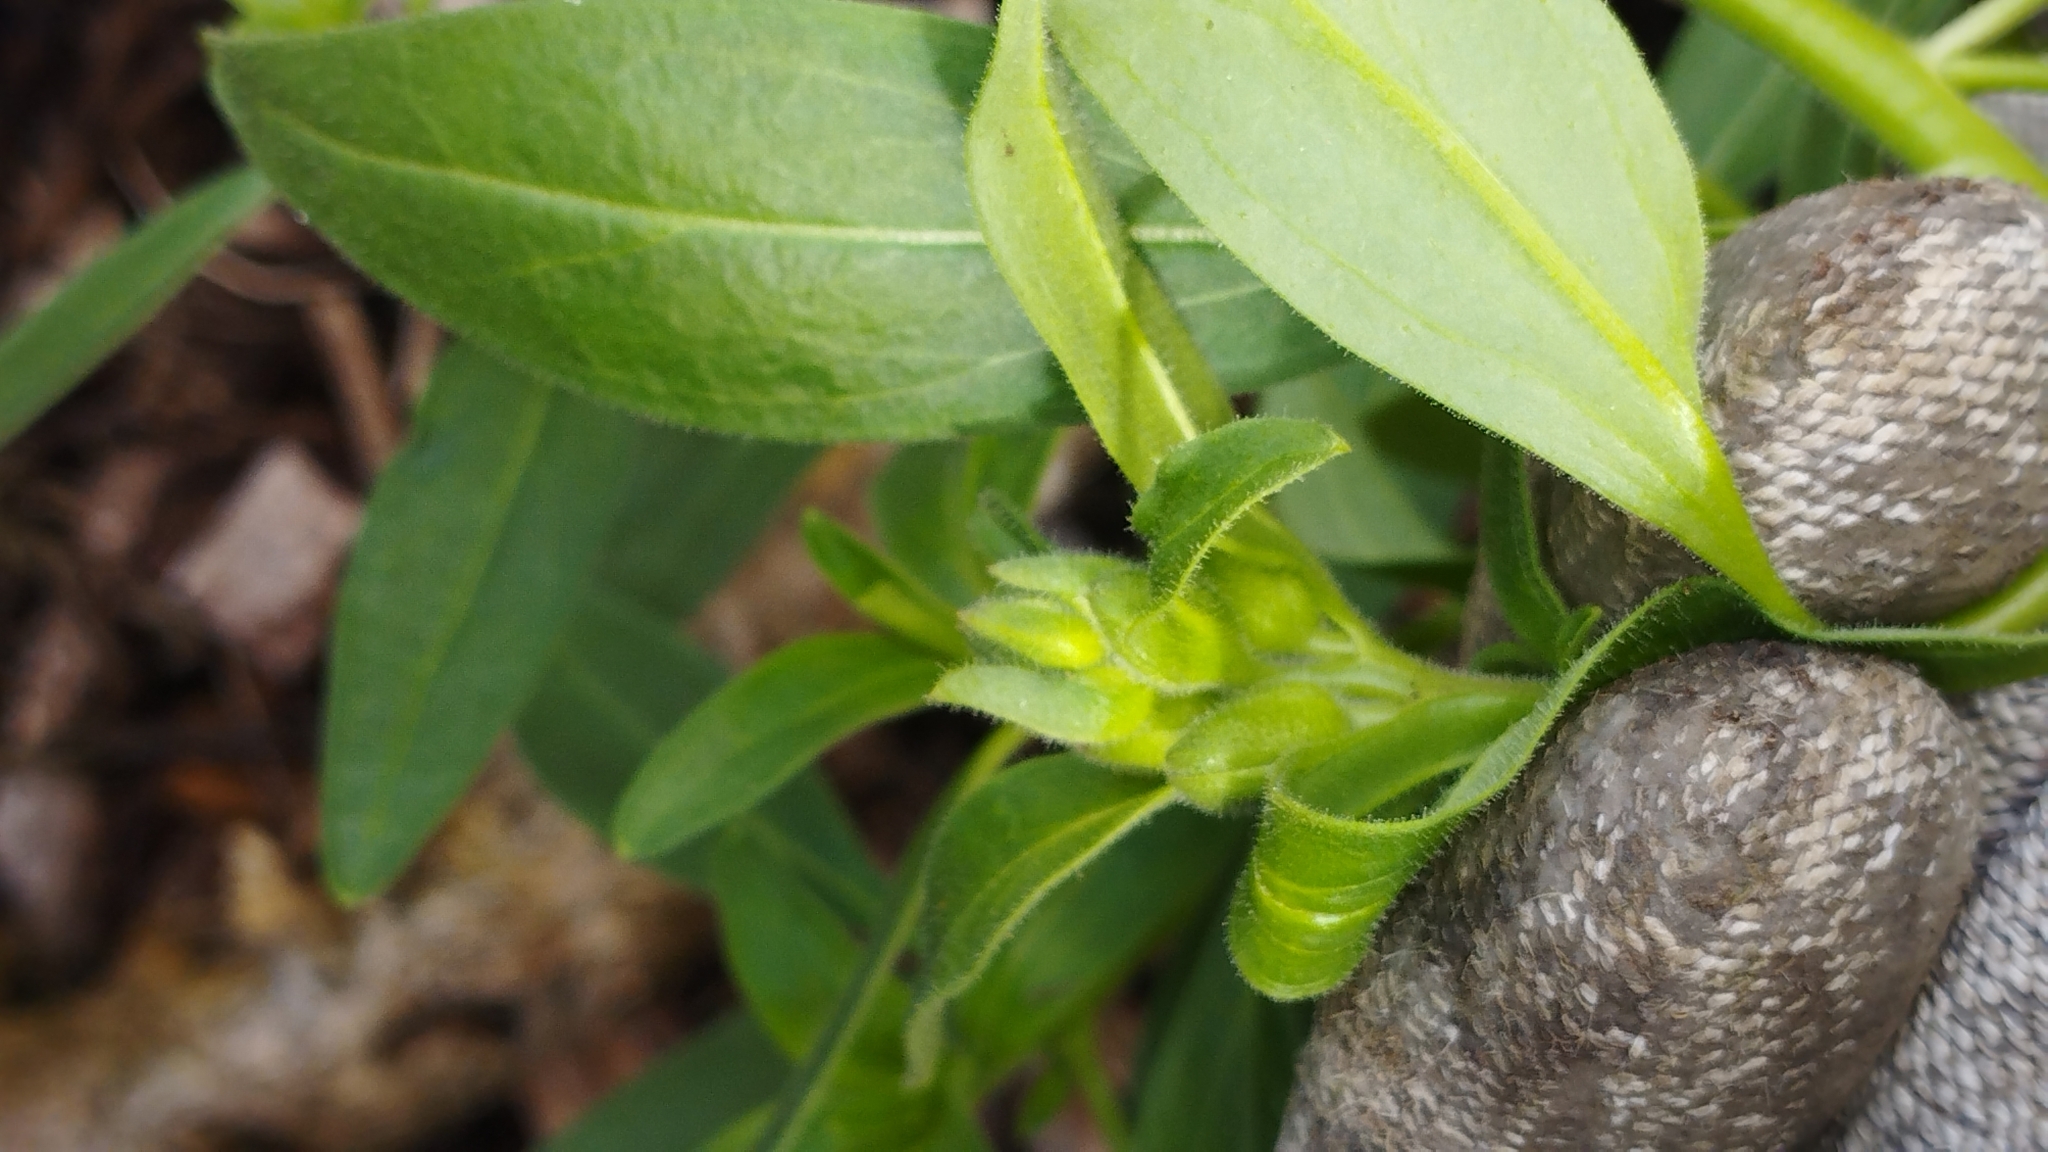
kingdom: Plantae
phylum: Tracheophyta
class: Magnoliopsida
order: Lamiales
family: Plantaginaceae
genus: Antirrhinum
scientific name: Antirrhinum majus
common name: Snapdragon
